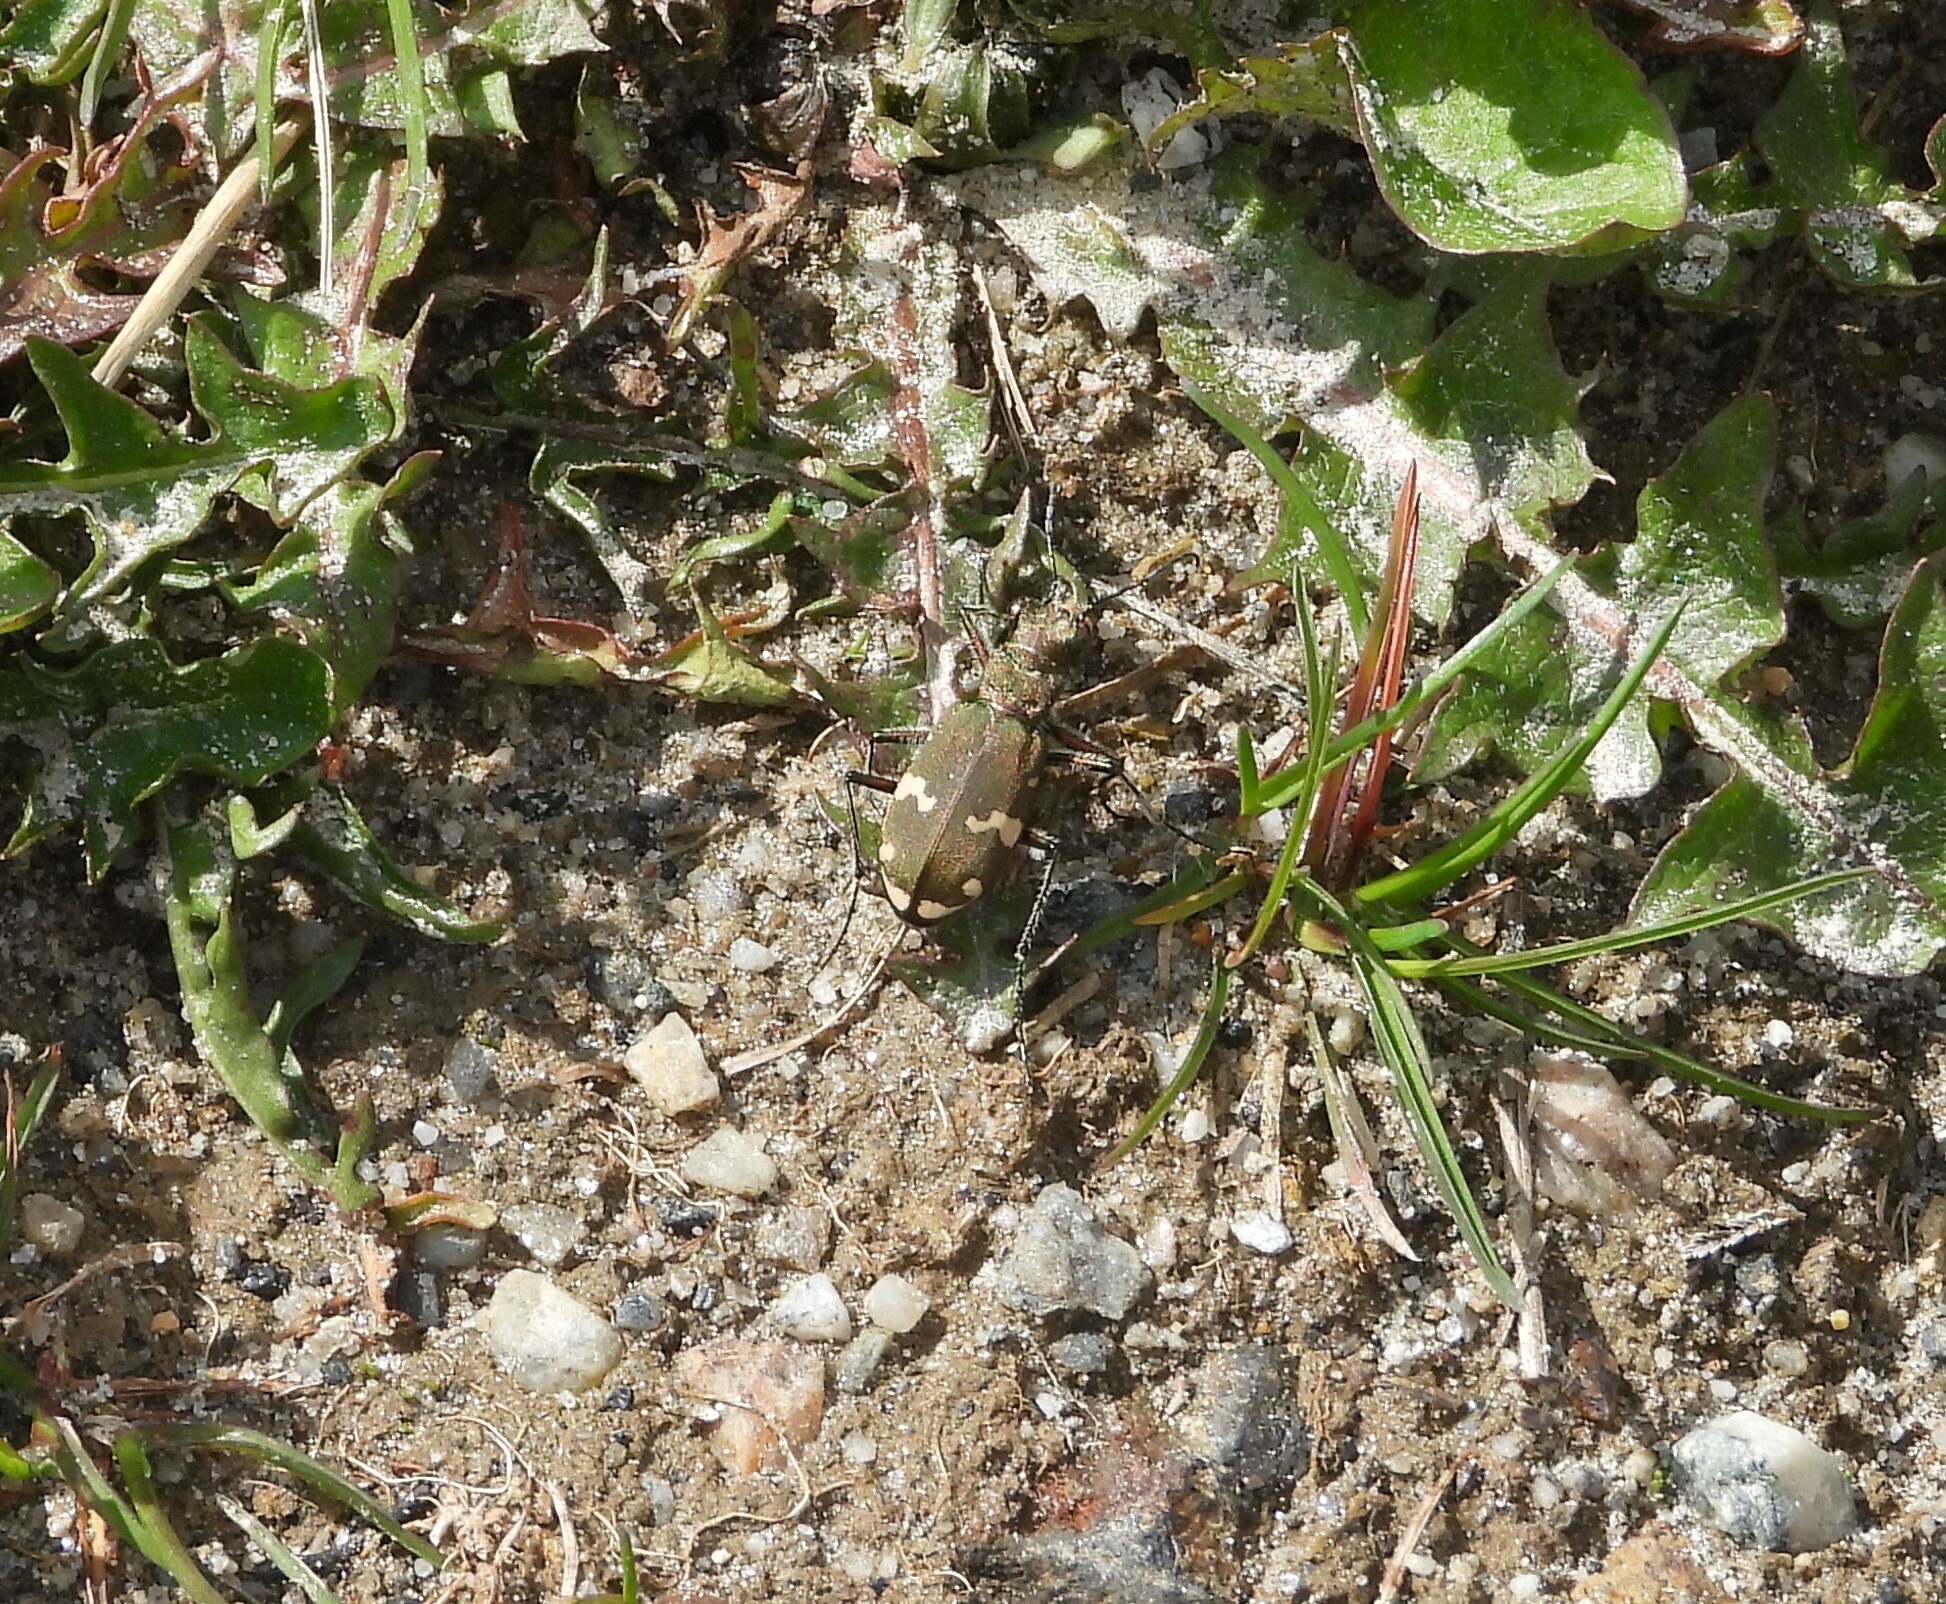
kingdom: Animalia
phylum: Arthropoda
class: Insecta
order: Coleoptera
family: Carabidae
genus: Cicindela
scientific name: Cicindela sylvicola
